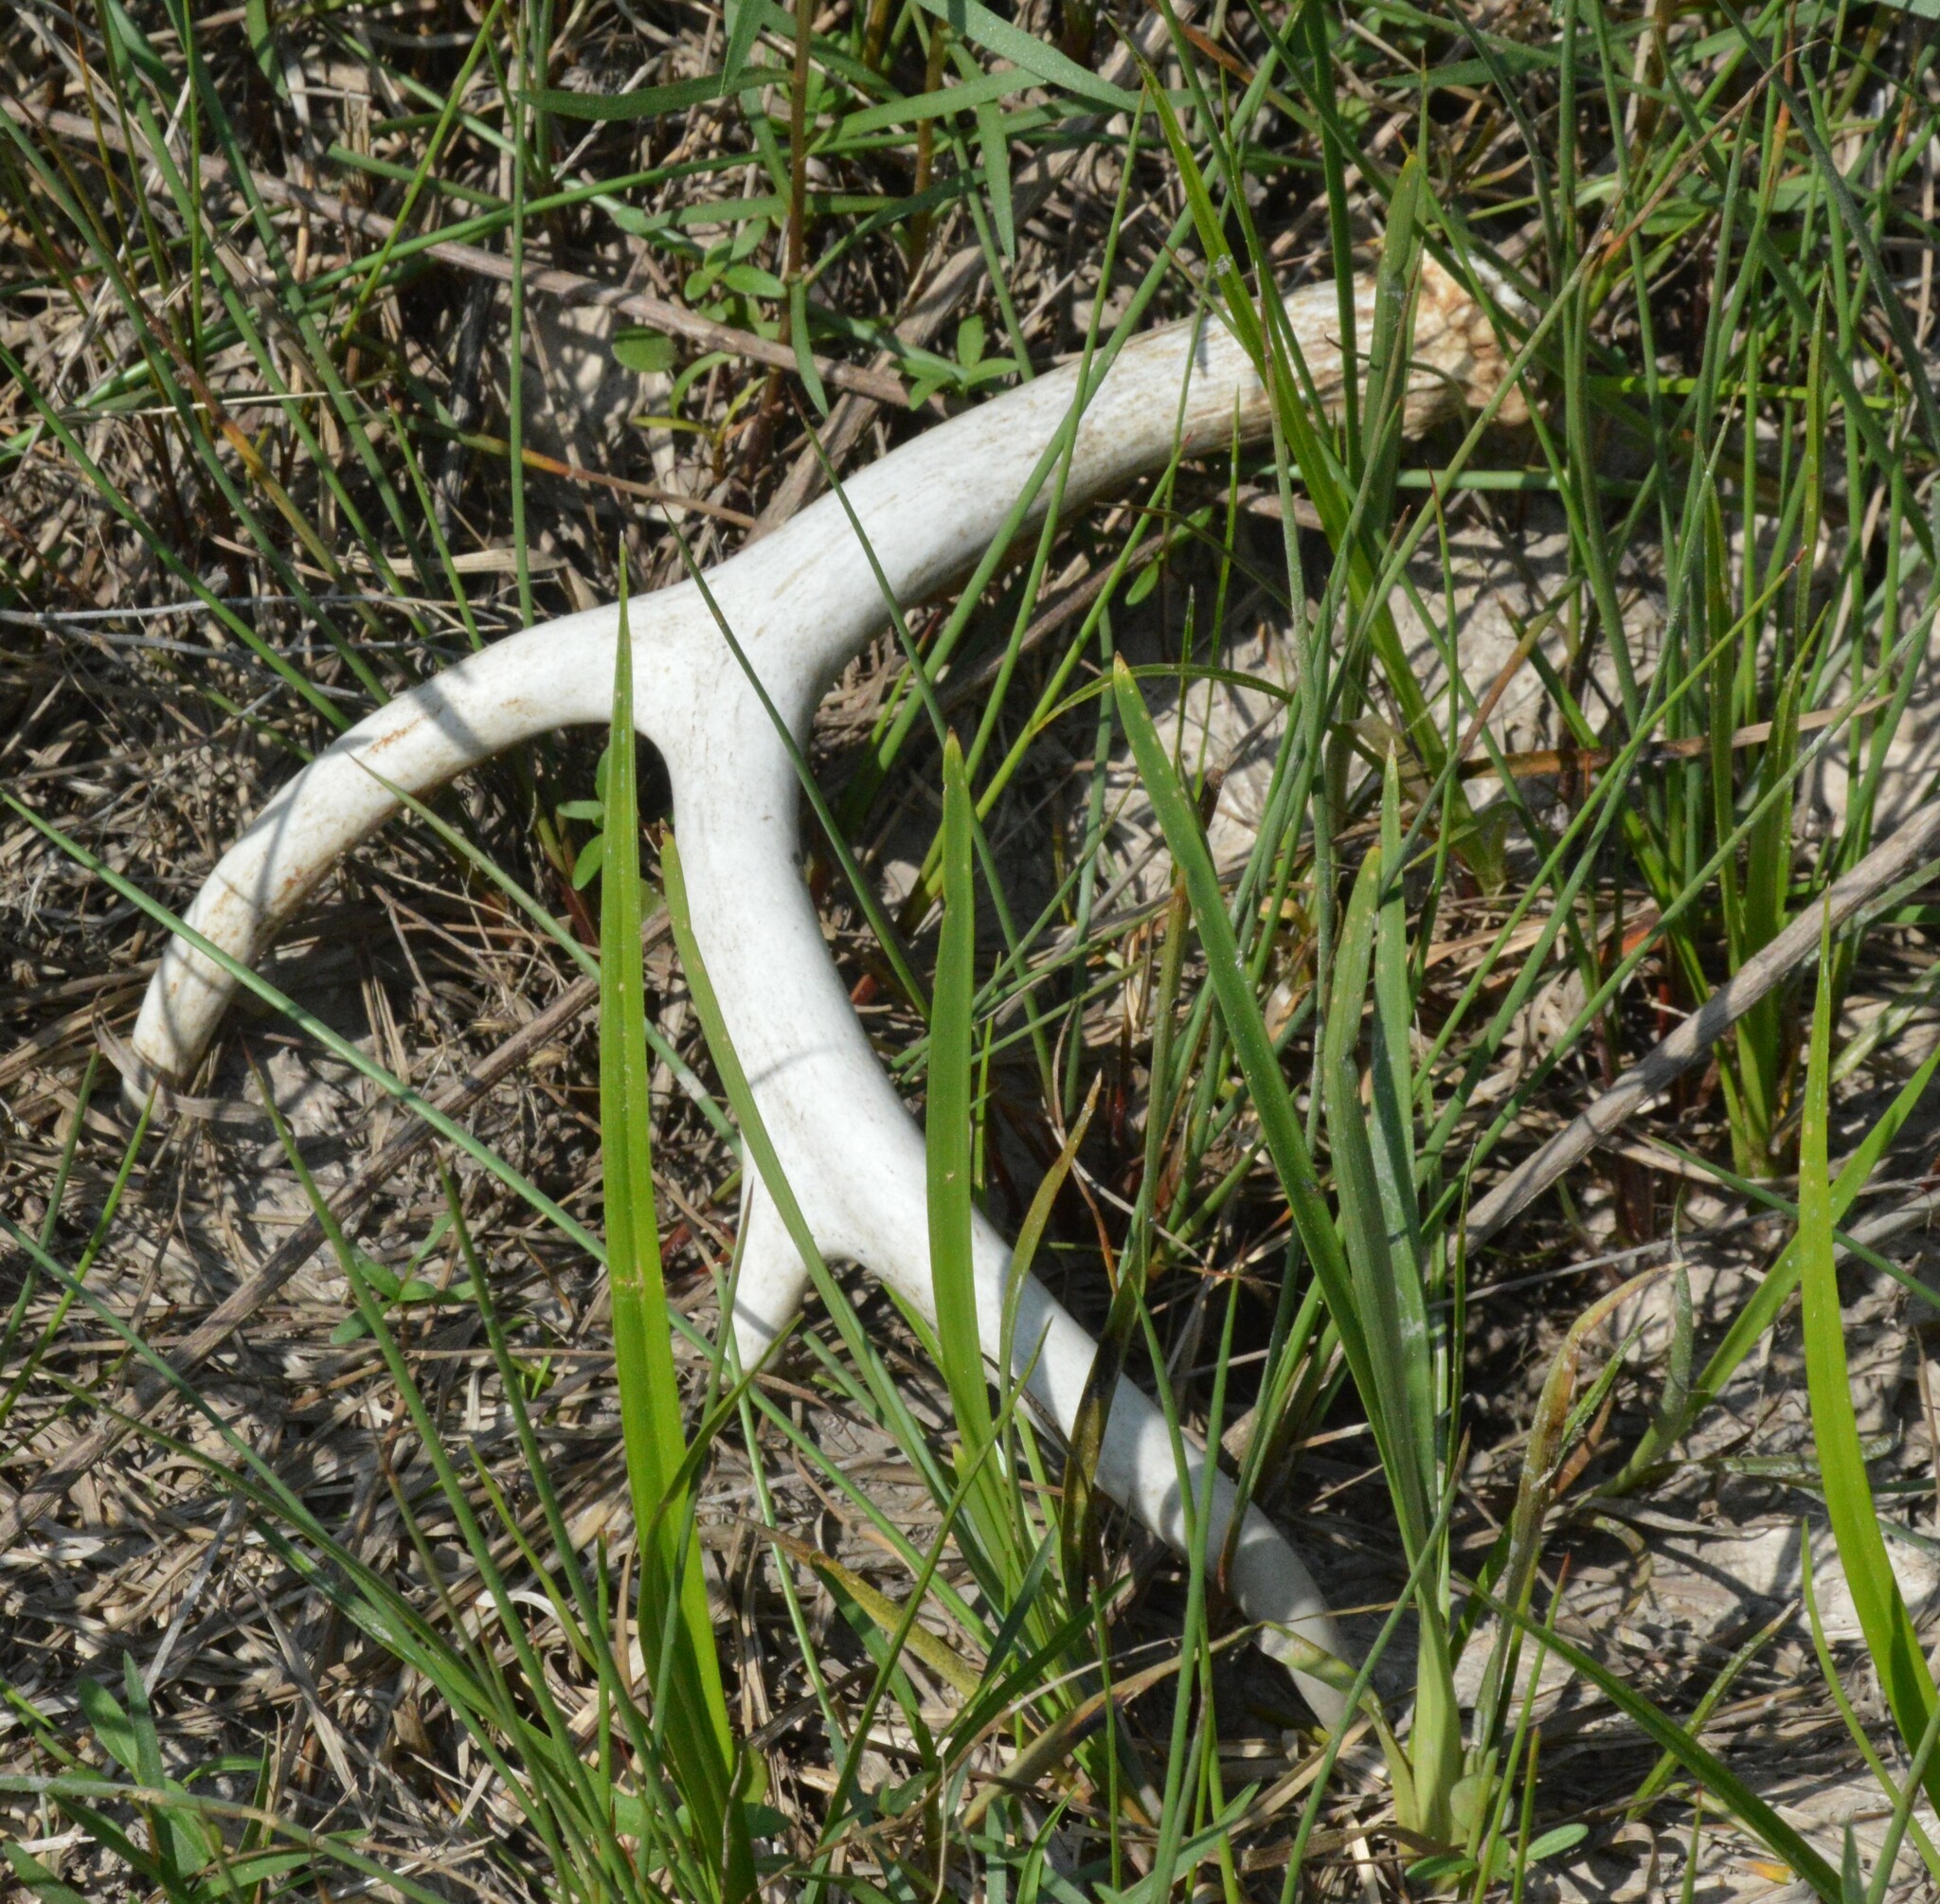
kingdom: Animalia
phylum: Chordata
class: Mammalia
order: Artiodactyla
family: Cervidae
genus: Odocoileus
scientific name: Odocoileus virginianus
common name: White-tailed deer
